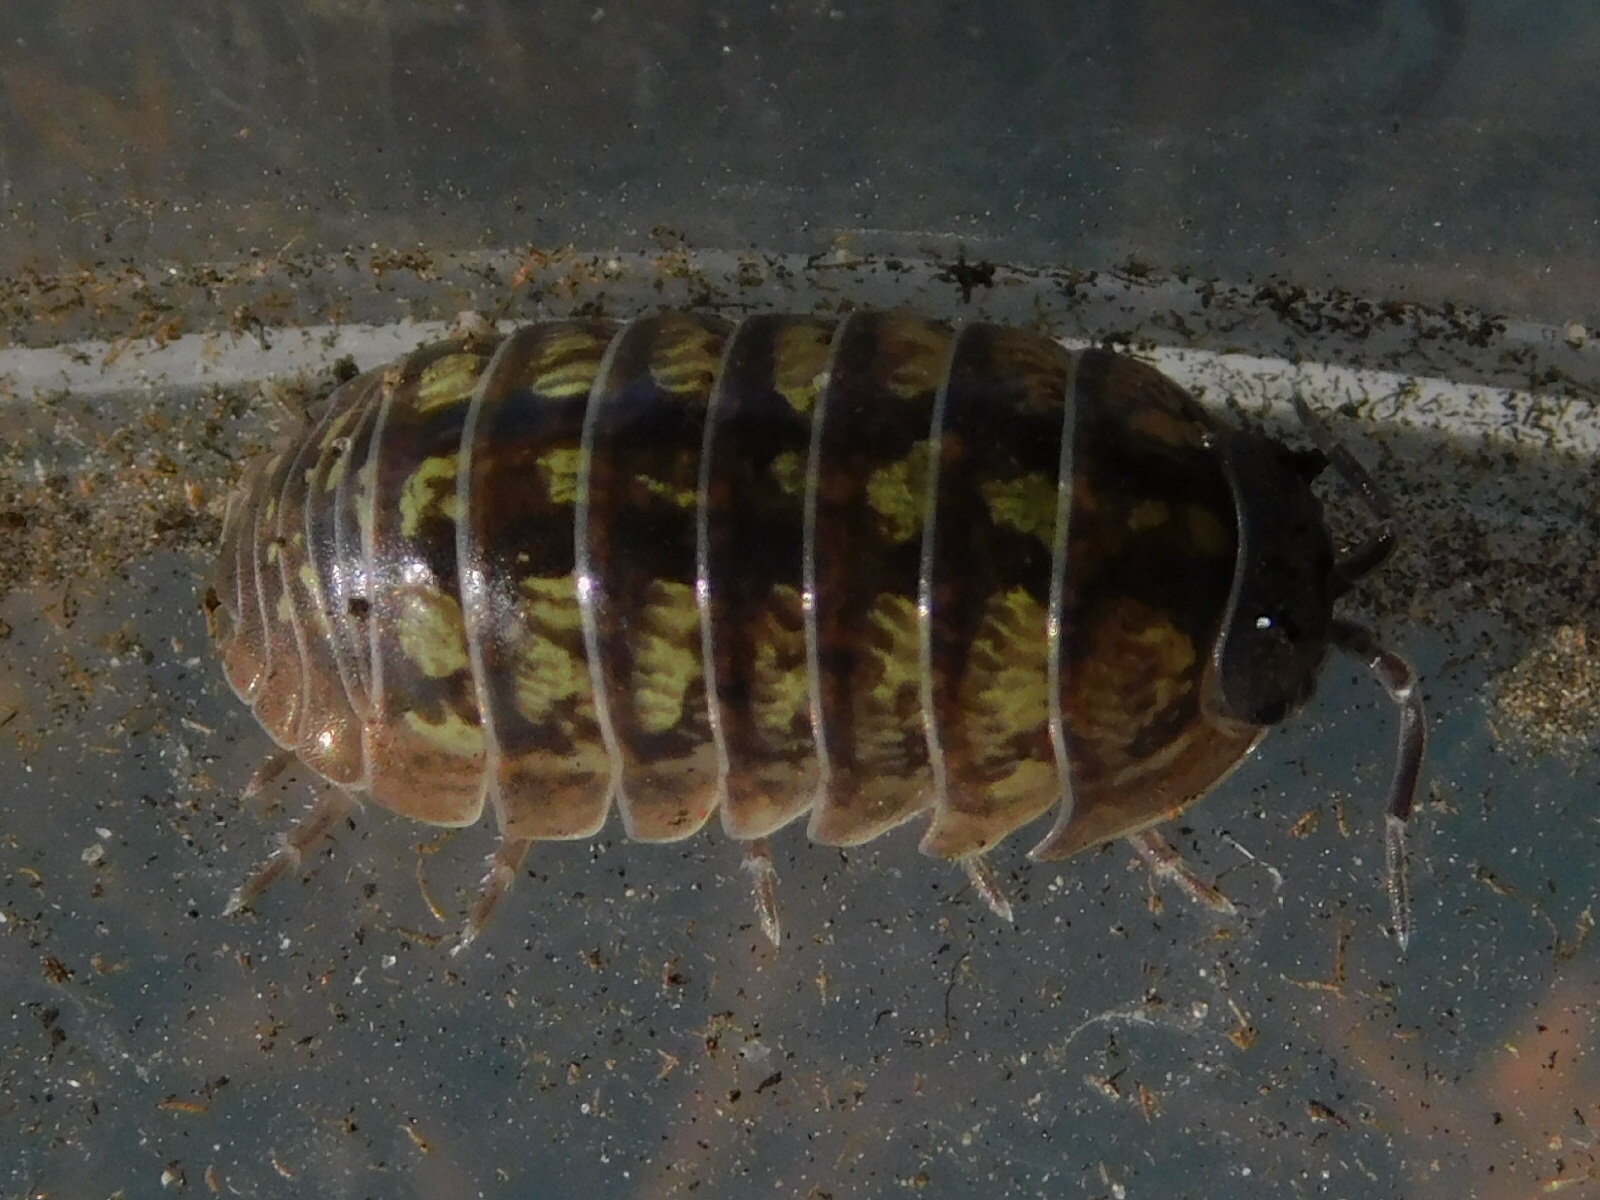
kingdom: Animalia
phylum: Arthropoda
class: Malacostraca
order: Isopoda
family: Armadillidiidae
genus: Armadillidium
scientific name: Armadillidium vulgare
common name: Common pill woodlouse
